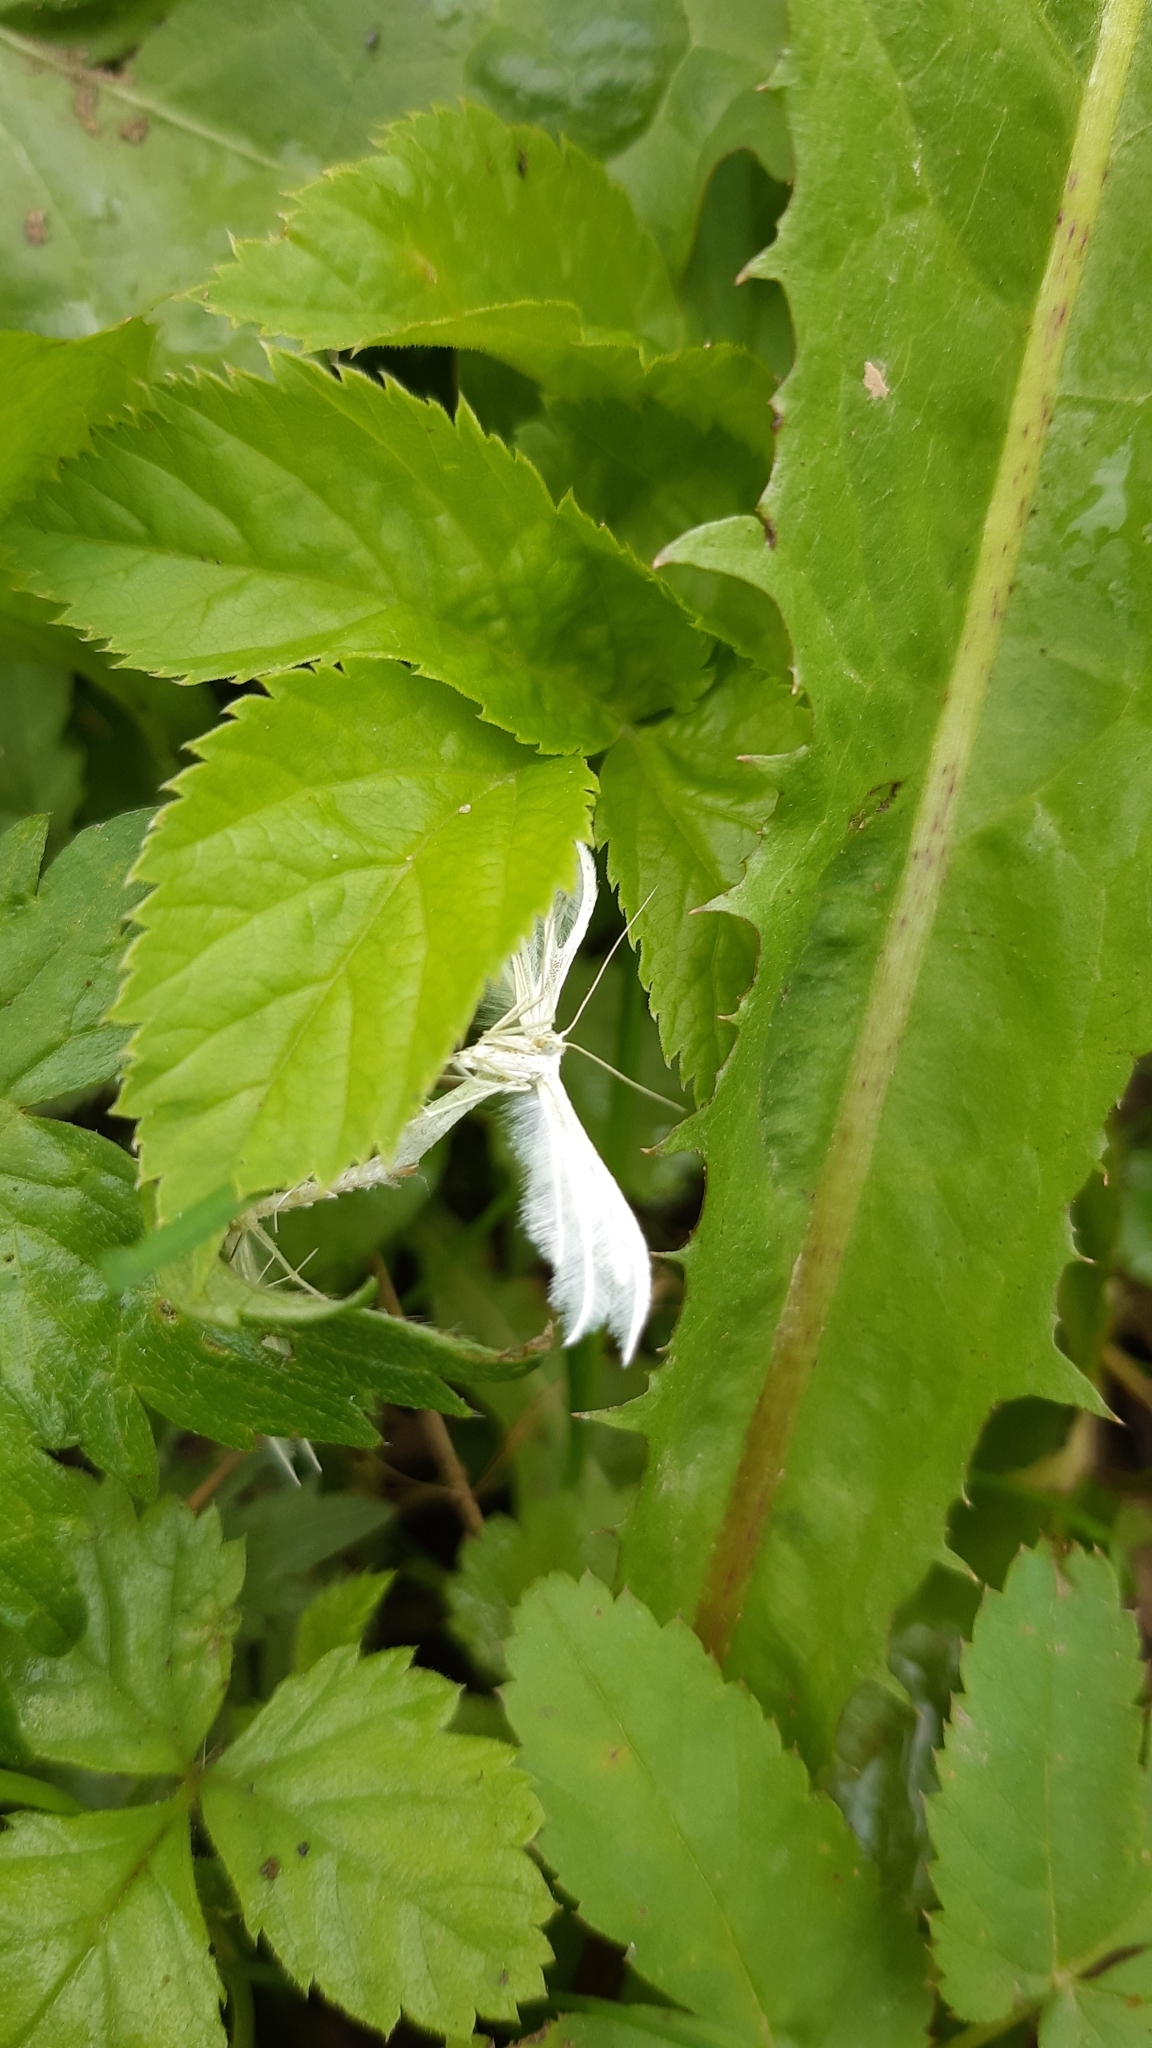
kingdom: Animalia
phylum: Arthropoda
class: Insecta
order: Lepidoptera
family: Pterophoridae
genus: Pterophorus
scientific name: Pterophorus pentadactyla
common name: White plume moth
